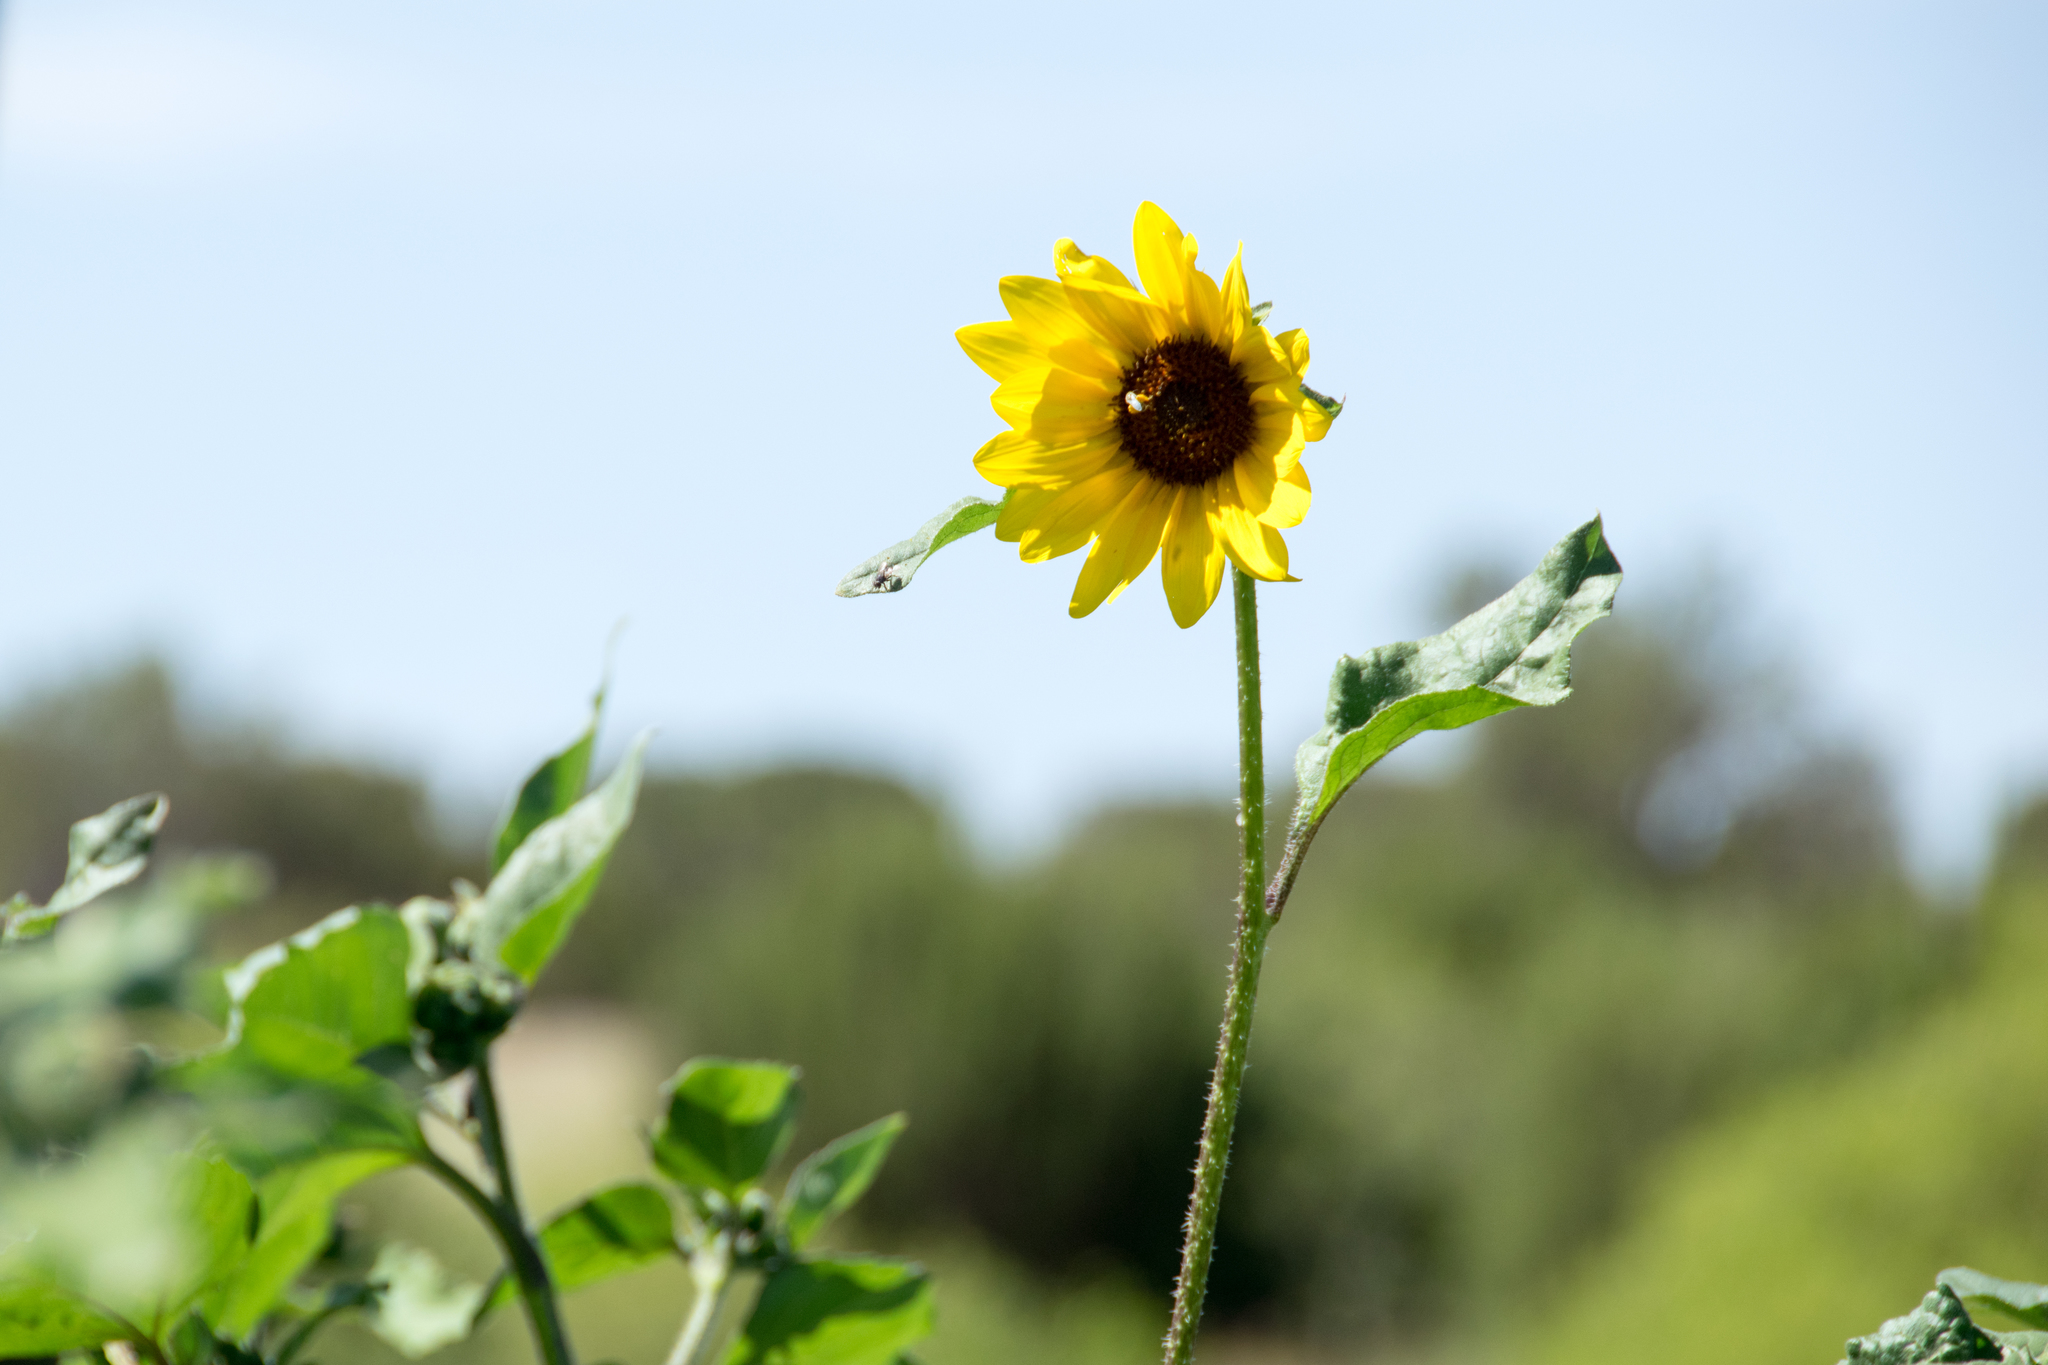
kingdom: Plantae
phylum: Tracheophyta
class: Magnoliopsida
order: Asterales
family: Asteraceae
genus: Helianthus
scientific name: Helianthus annuus
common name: Sunflower
